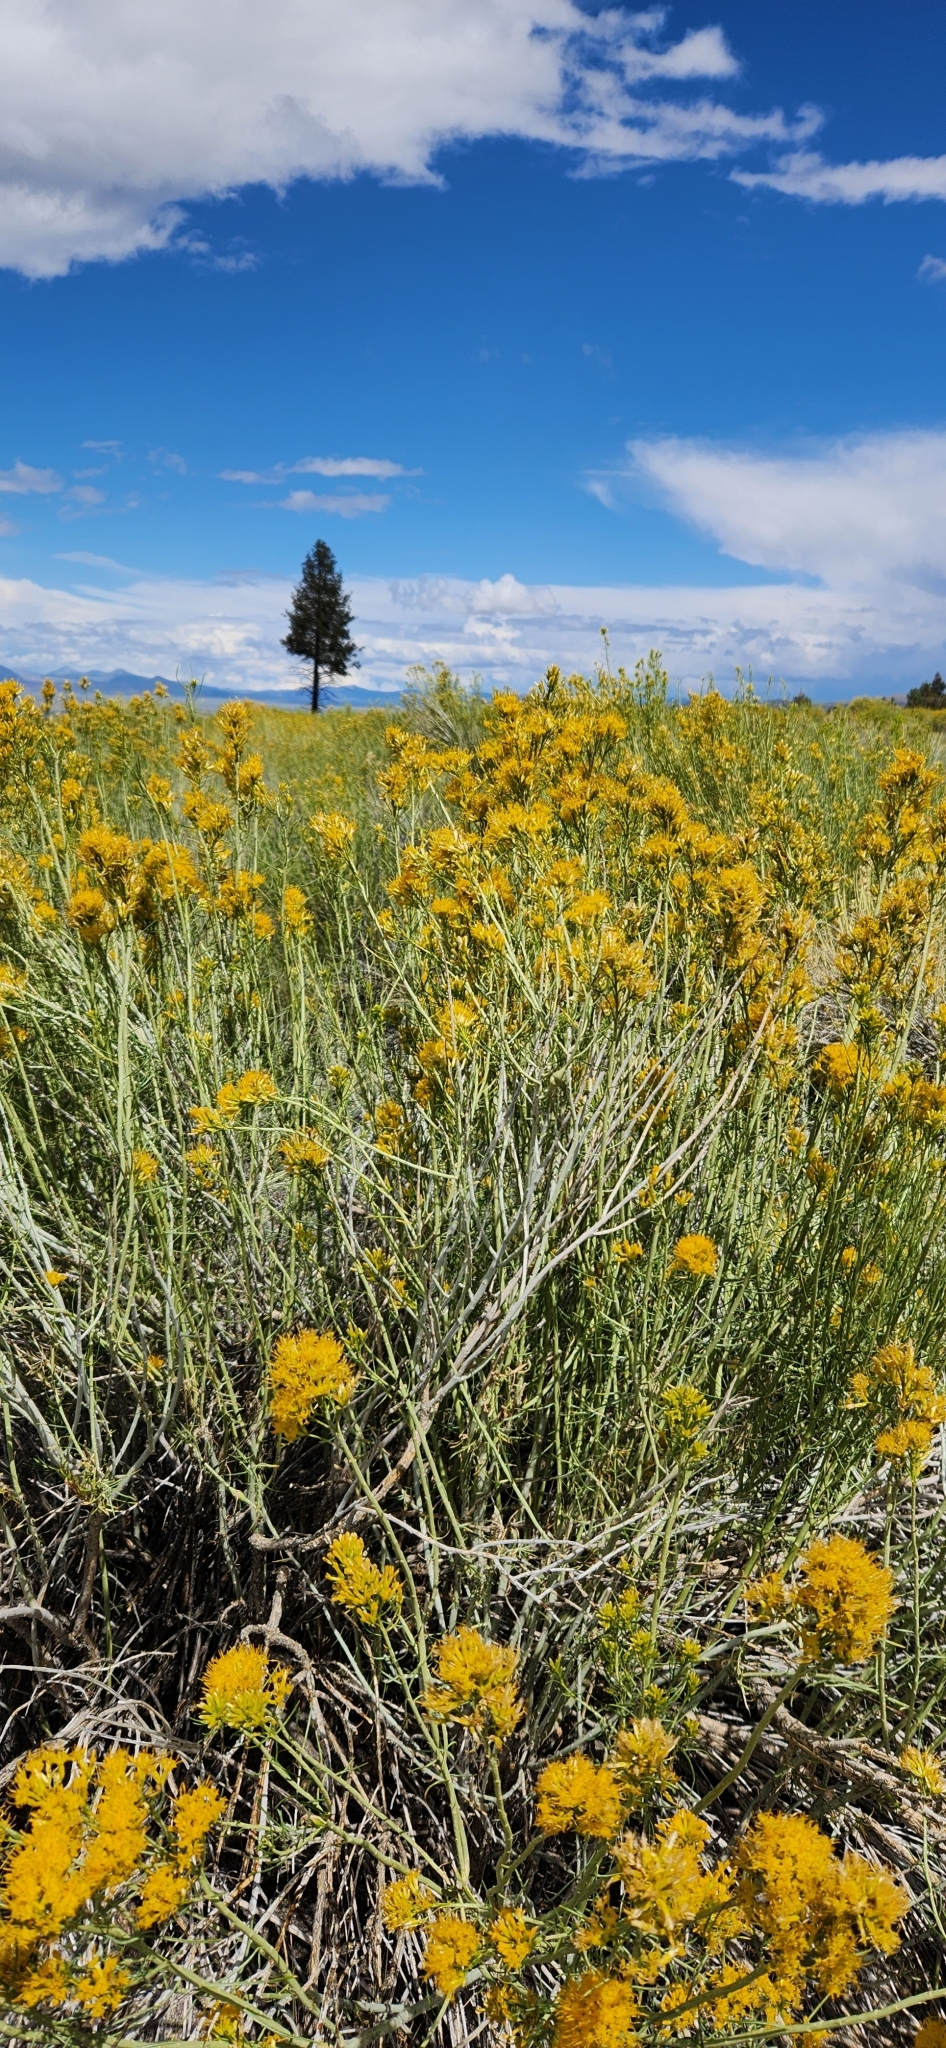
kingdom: Plantae
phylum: Tracheophyta
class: Magnoliopsida
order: Asterales
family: Asteraceae
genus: Ericameria
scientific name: Ericameria nauseosa
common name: Rubber rabbitbrush
